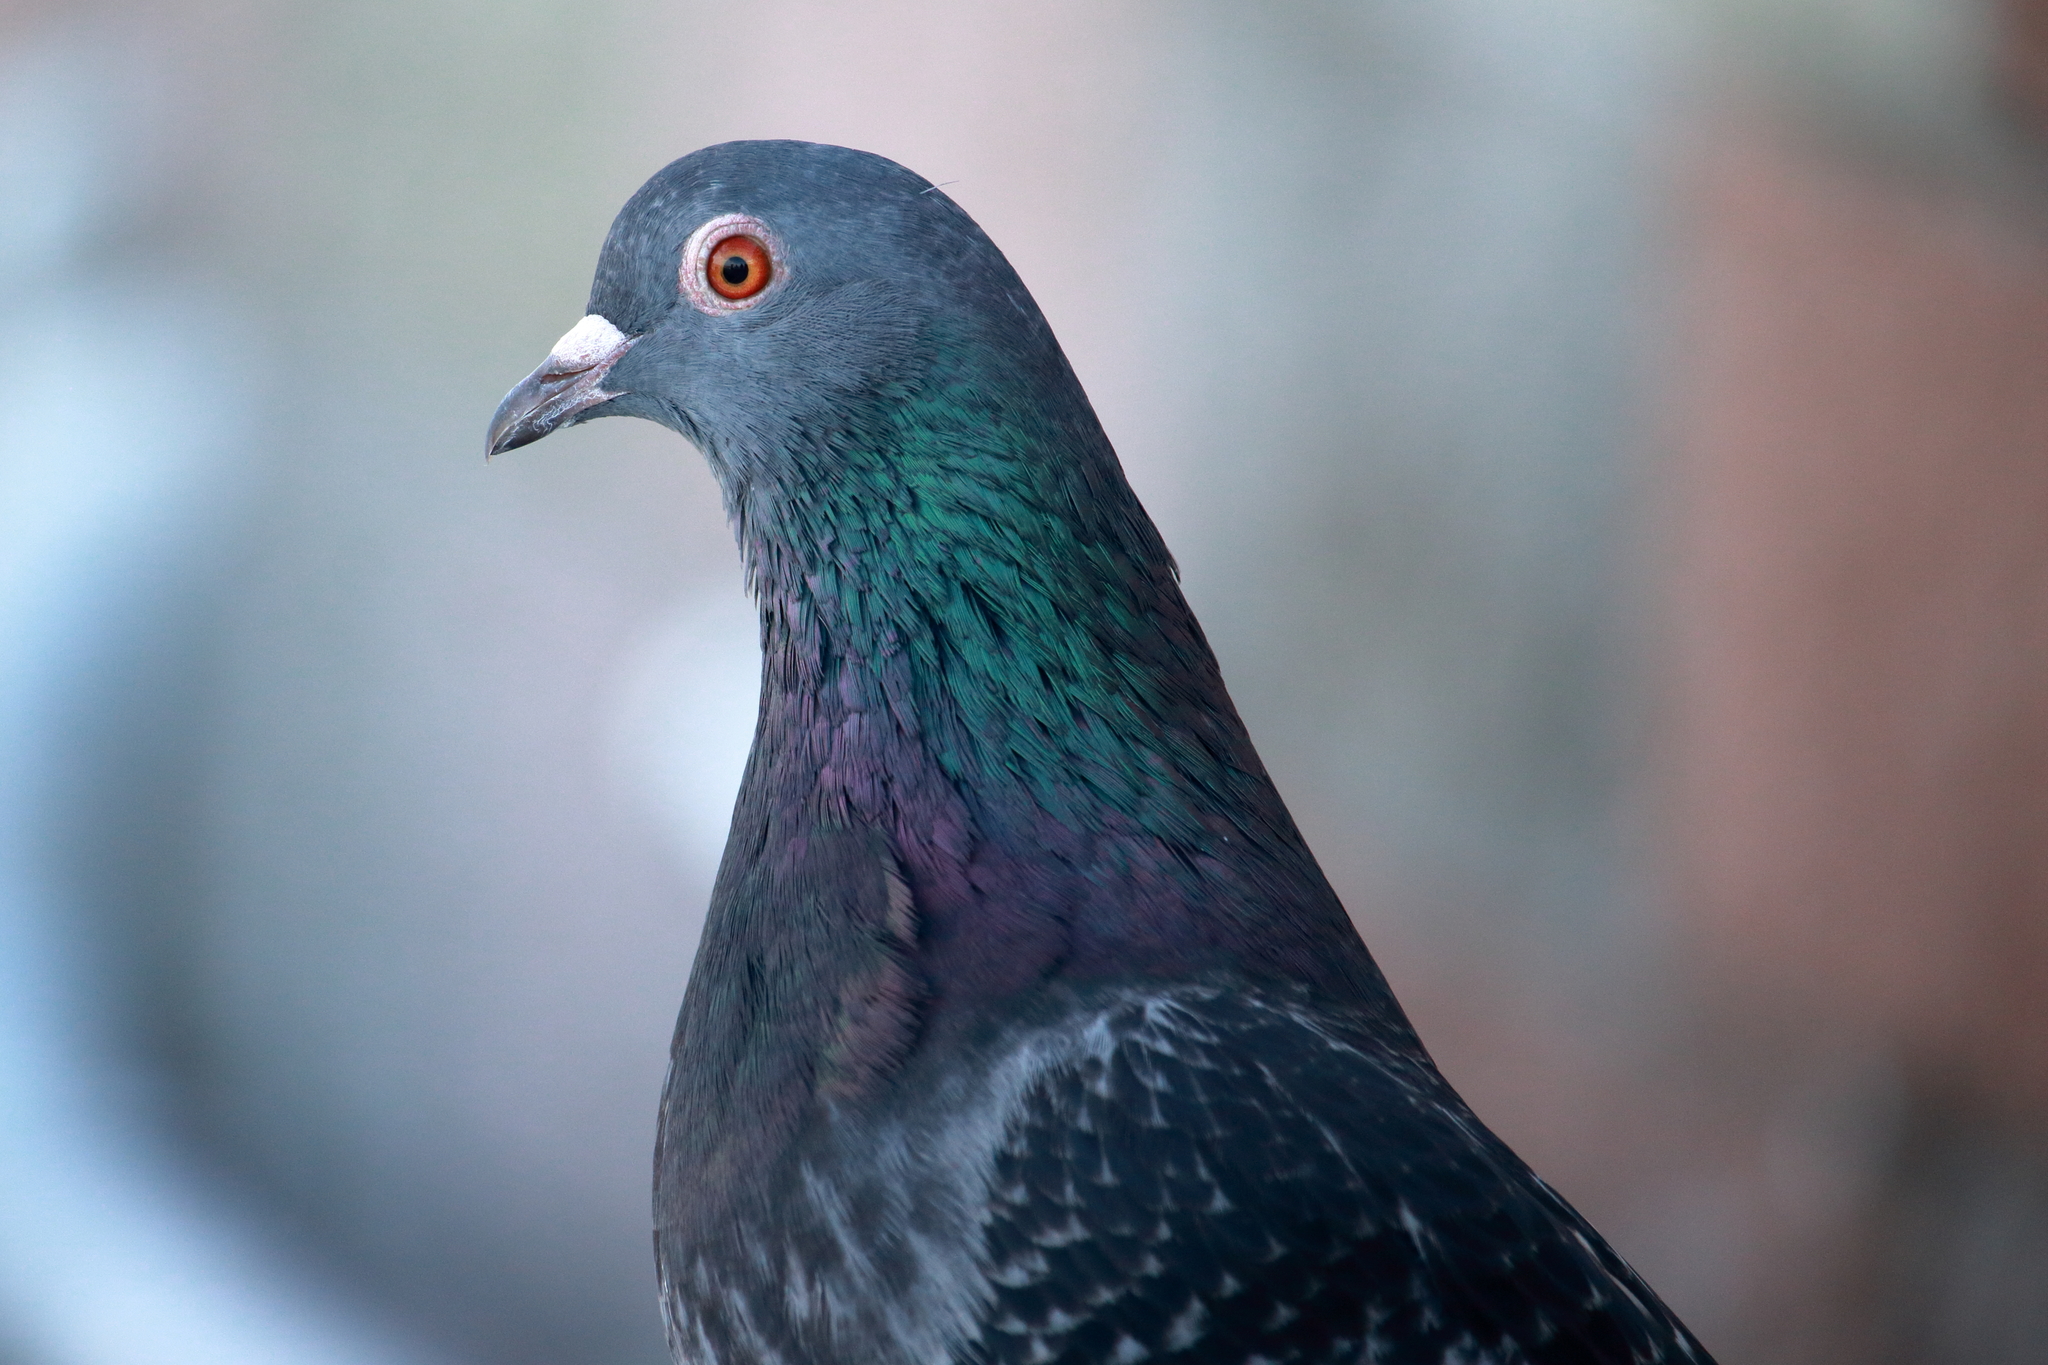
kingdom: Animalia
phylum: Chordata
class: Aves
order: Columbiformes
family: Columbidae
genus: Columba
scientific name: Columba livia
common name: Rock pigeon
